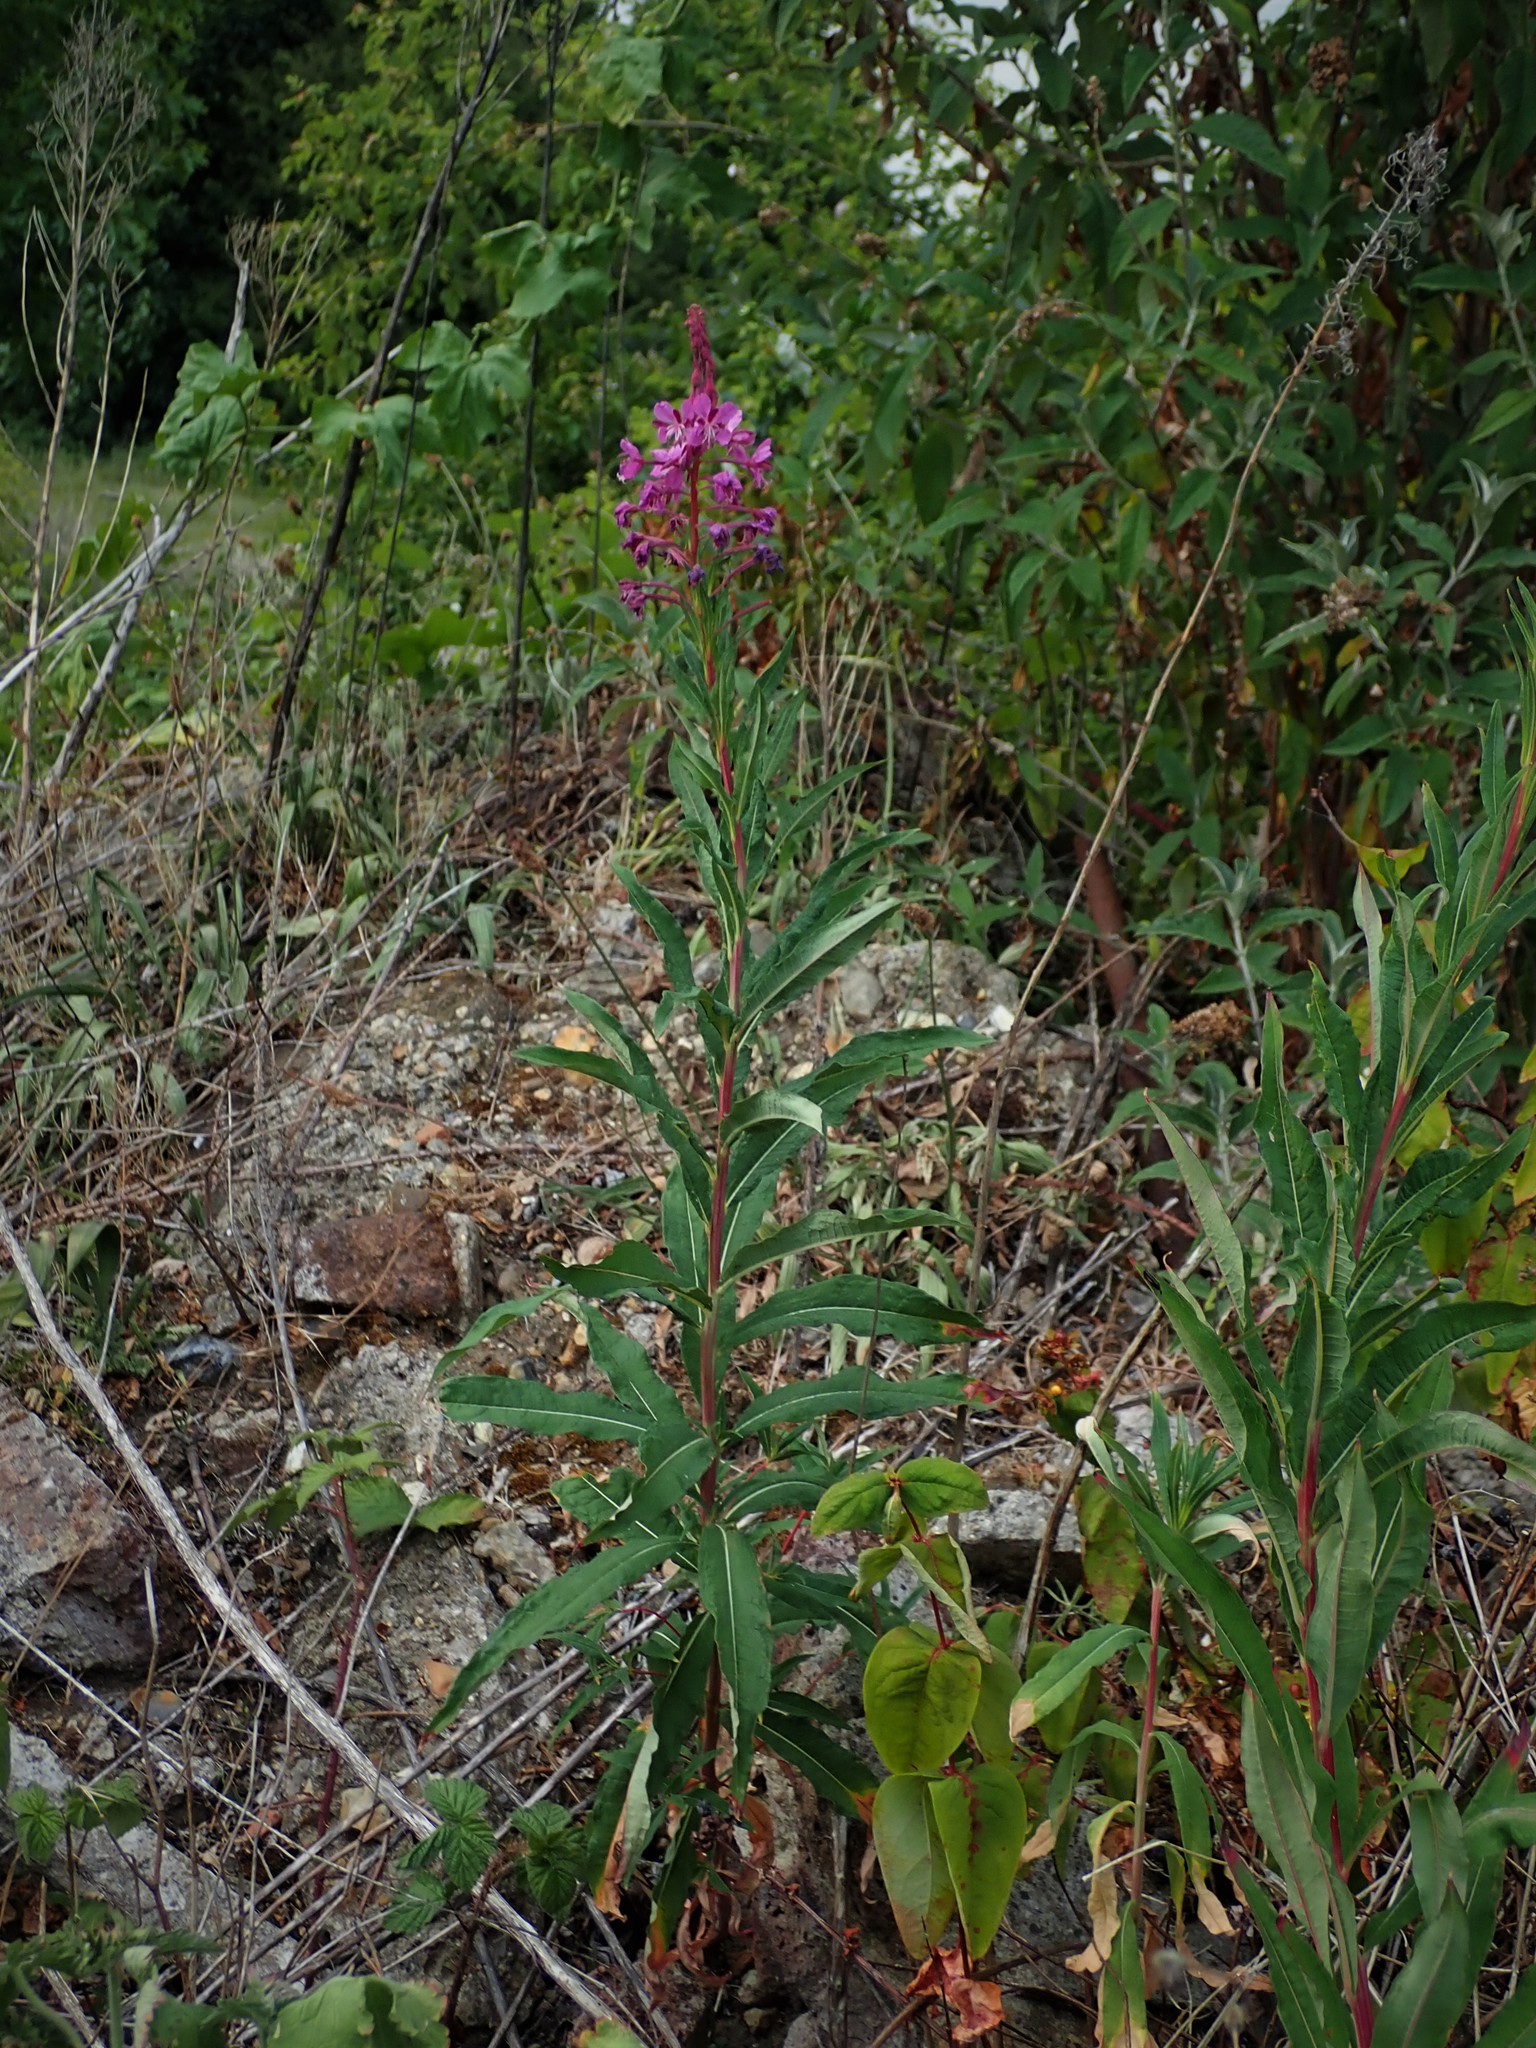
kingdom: Plantae
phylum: Tracheophyta
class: Magnoliopsida
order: Myrtales
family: Onagraceae
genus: Chamaenerion
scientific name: Chamaenerion angustifolium
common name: Fireweed
